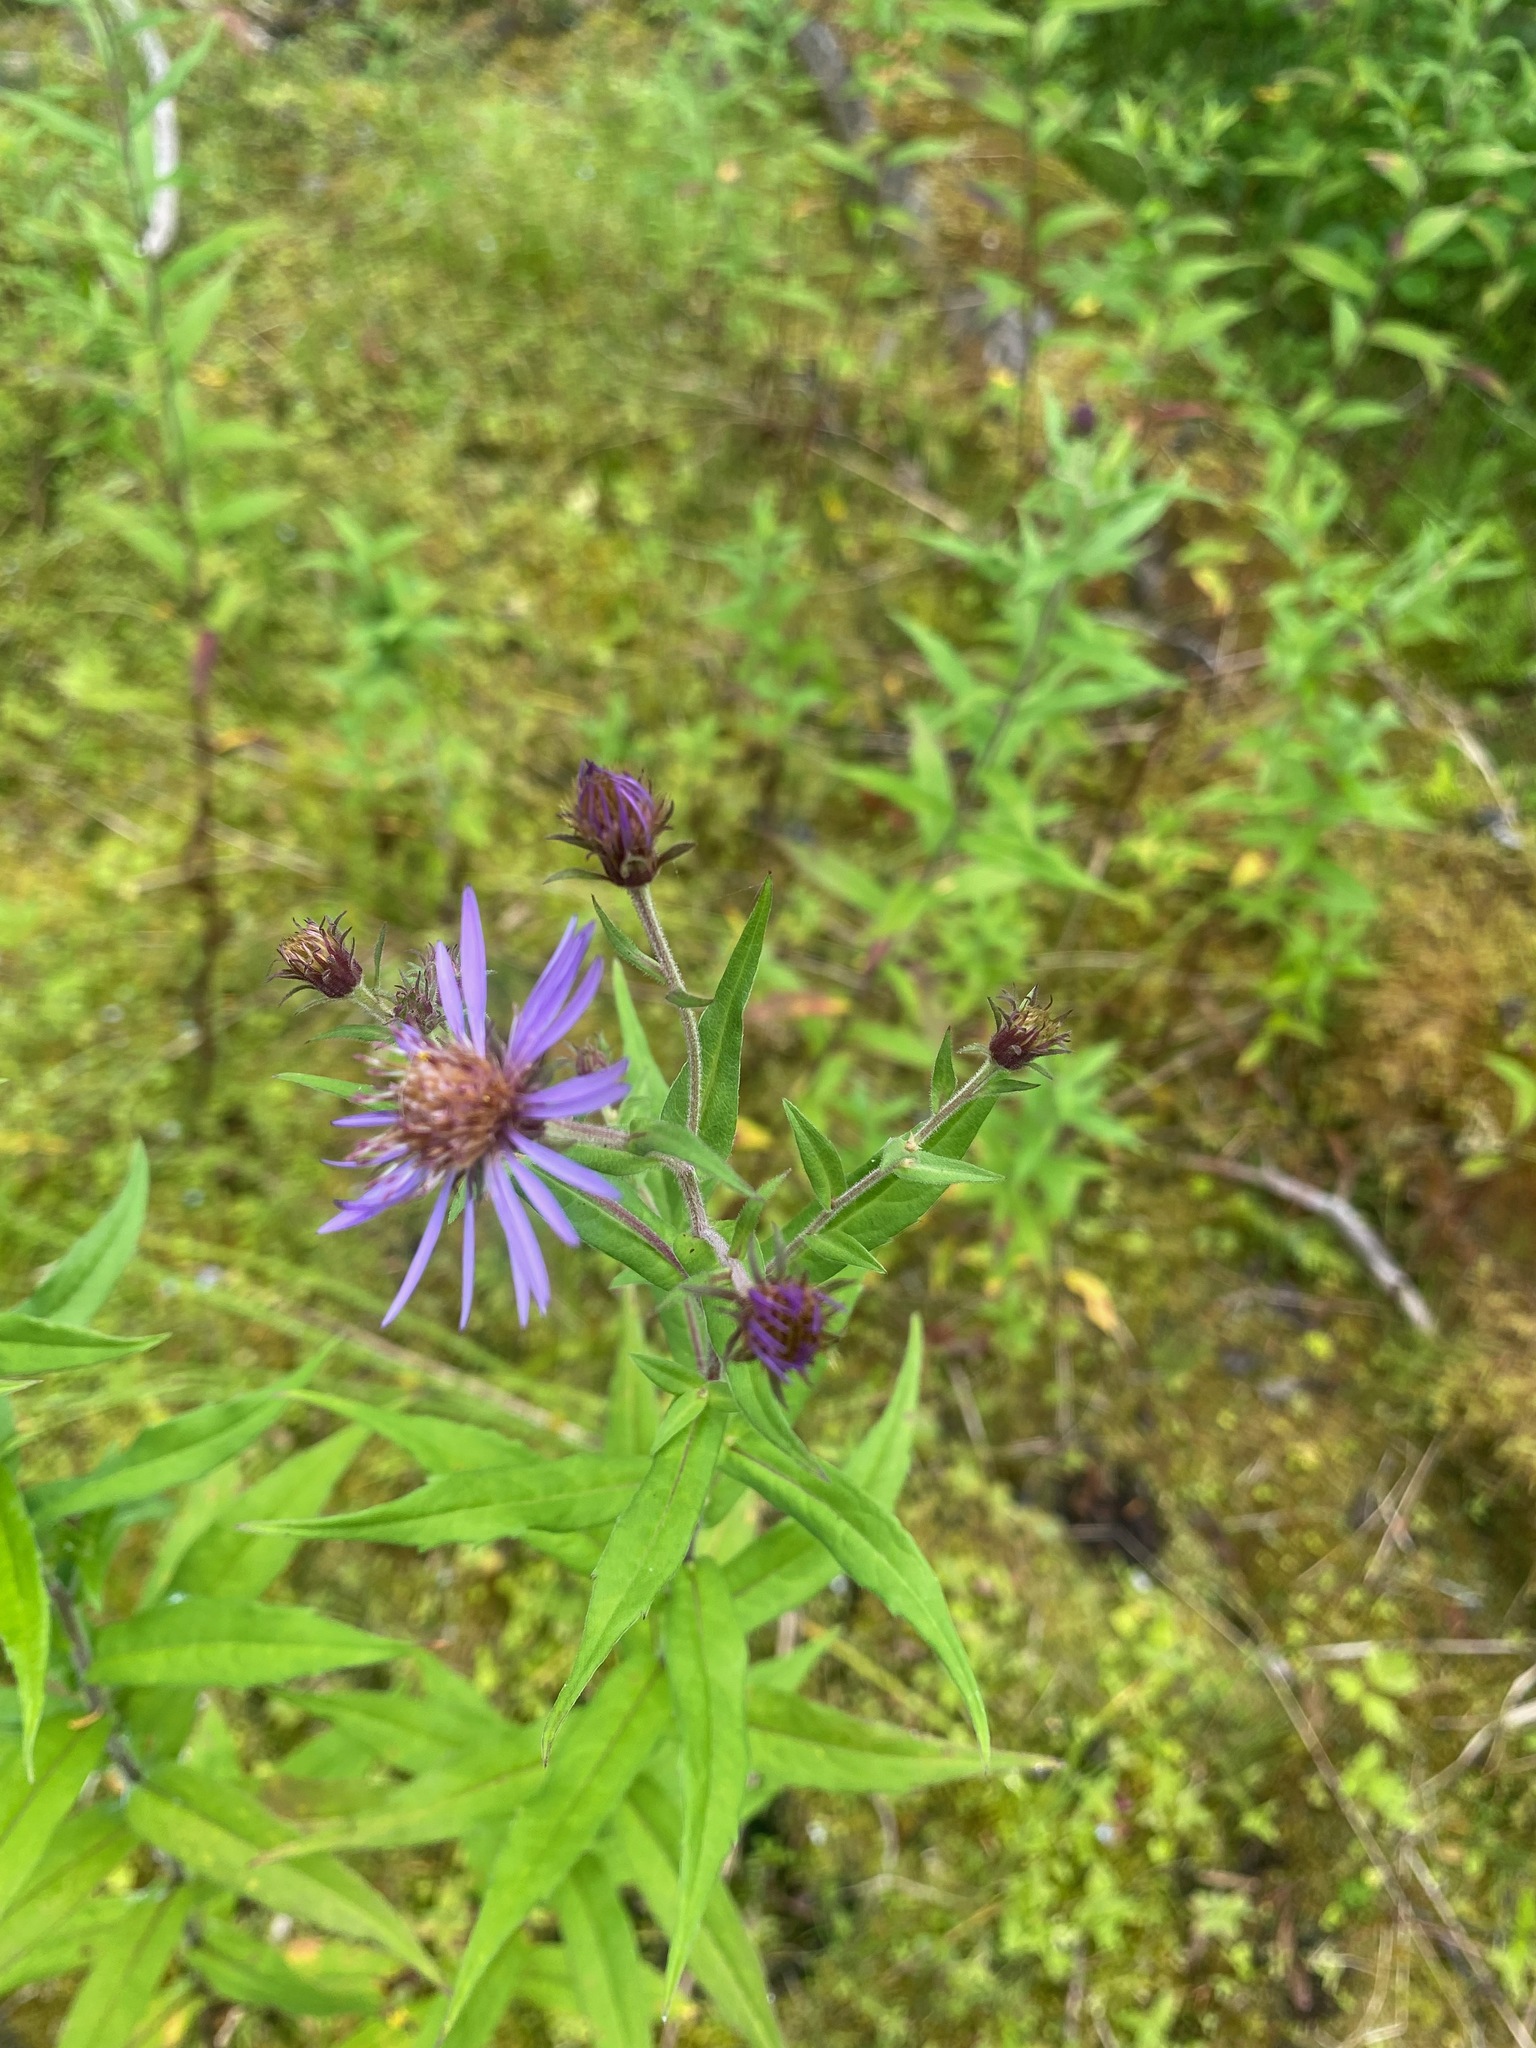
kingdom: Plantae
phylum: Tracheophyta
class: Magnoliopsida
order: Asterales
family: Asteraceae
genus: Canadanthus
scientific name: Canadanthus modestus
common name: Great northern aster
